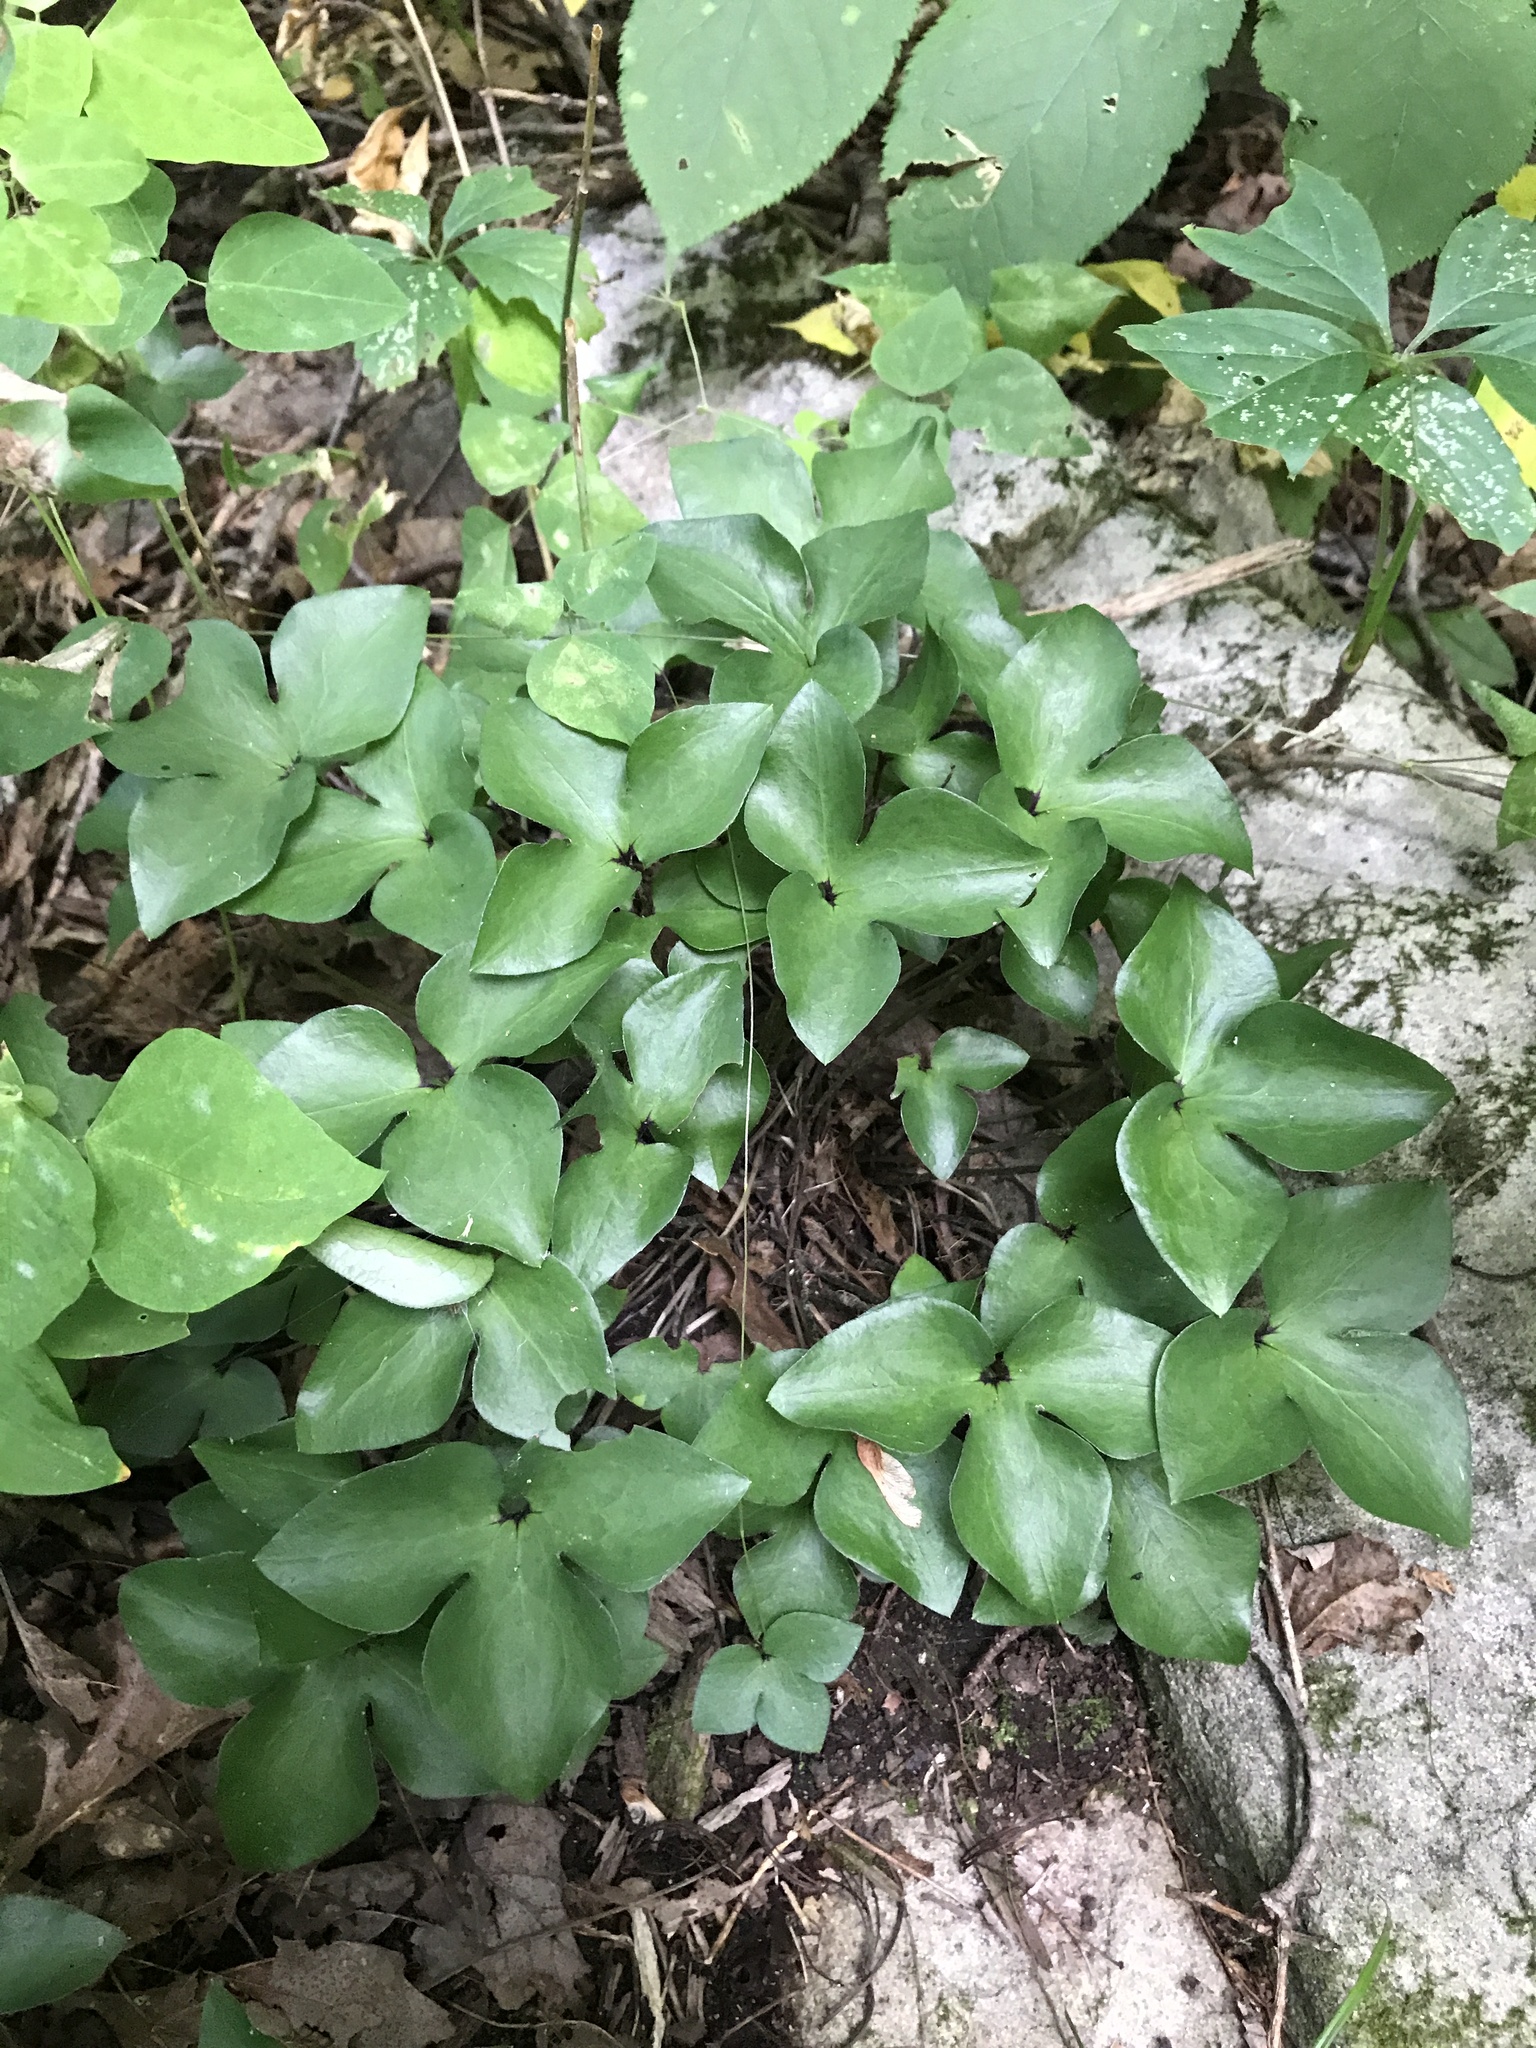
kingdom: Plantae
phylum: Tracheophyta
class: Magnoliopsida
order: Ranunculales
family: Ranunculaceae
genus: Hepatica
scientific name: Hepatica acutiloba
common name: Sharp-lobed hepatica
